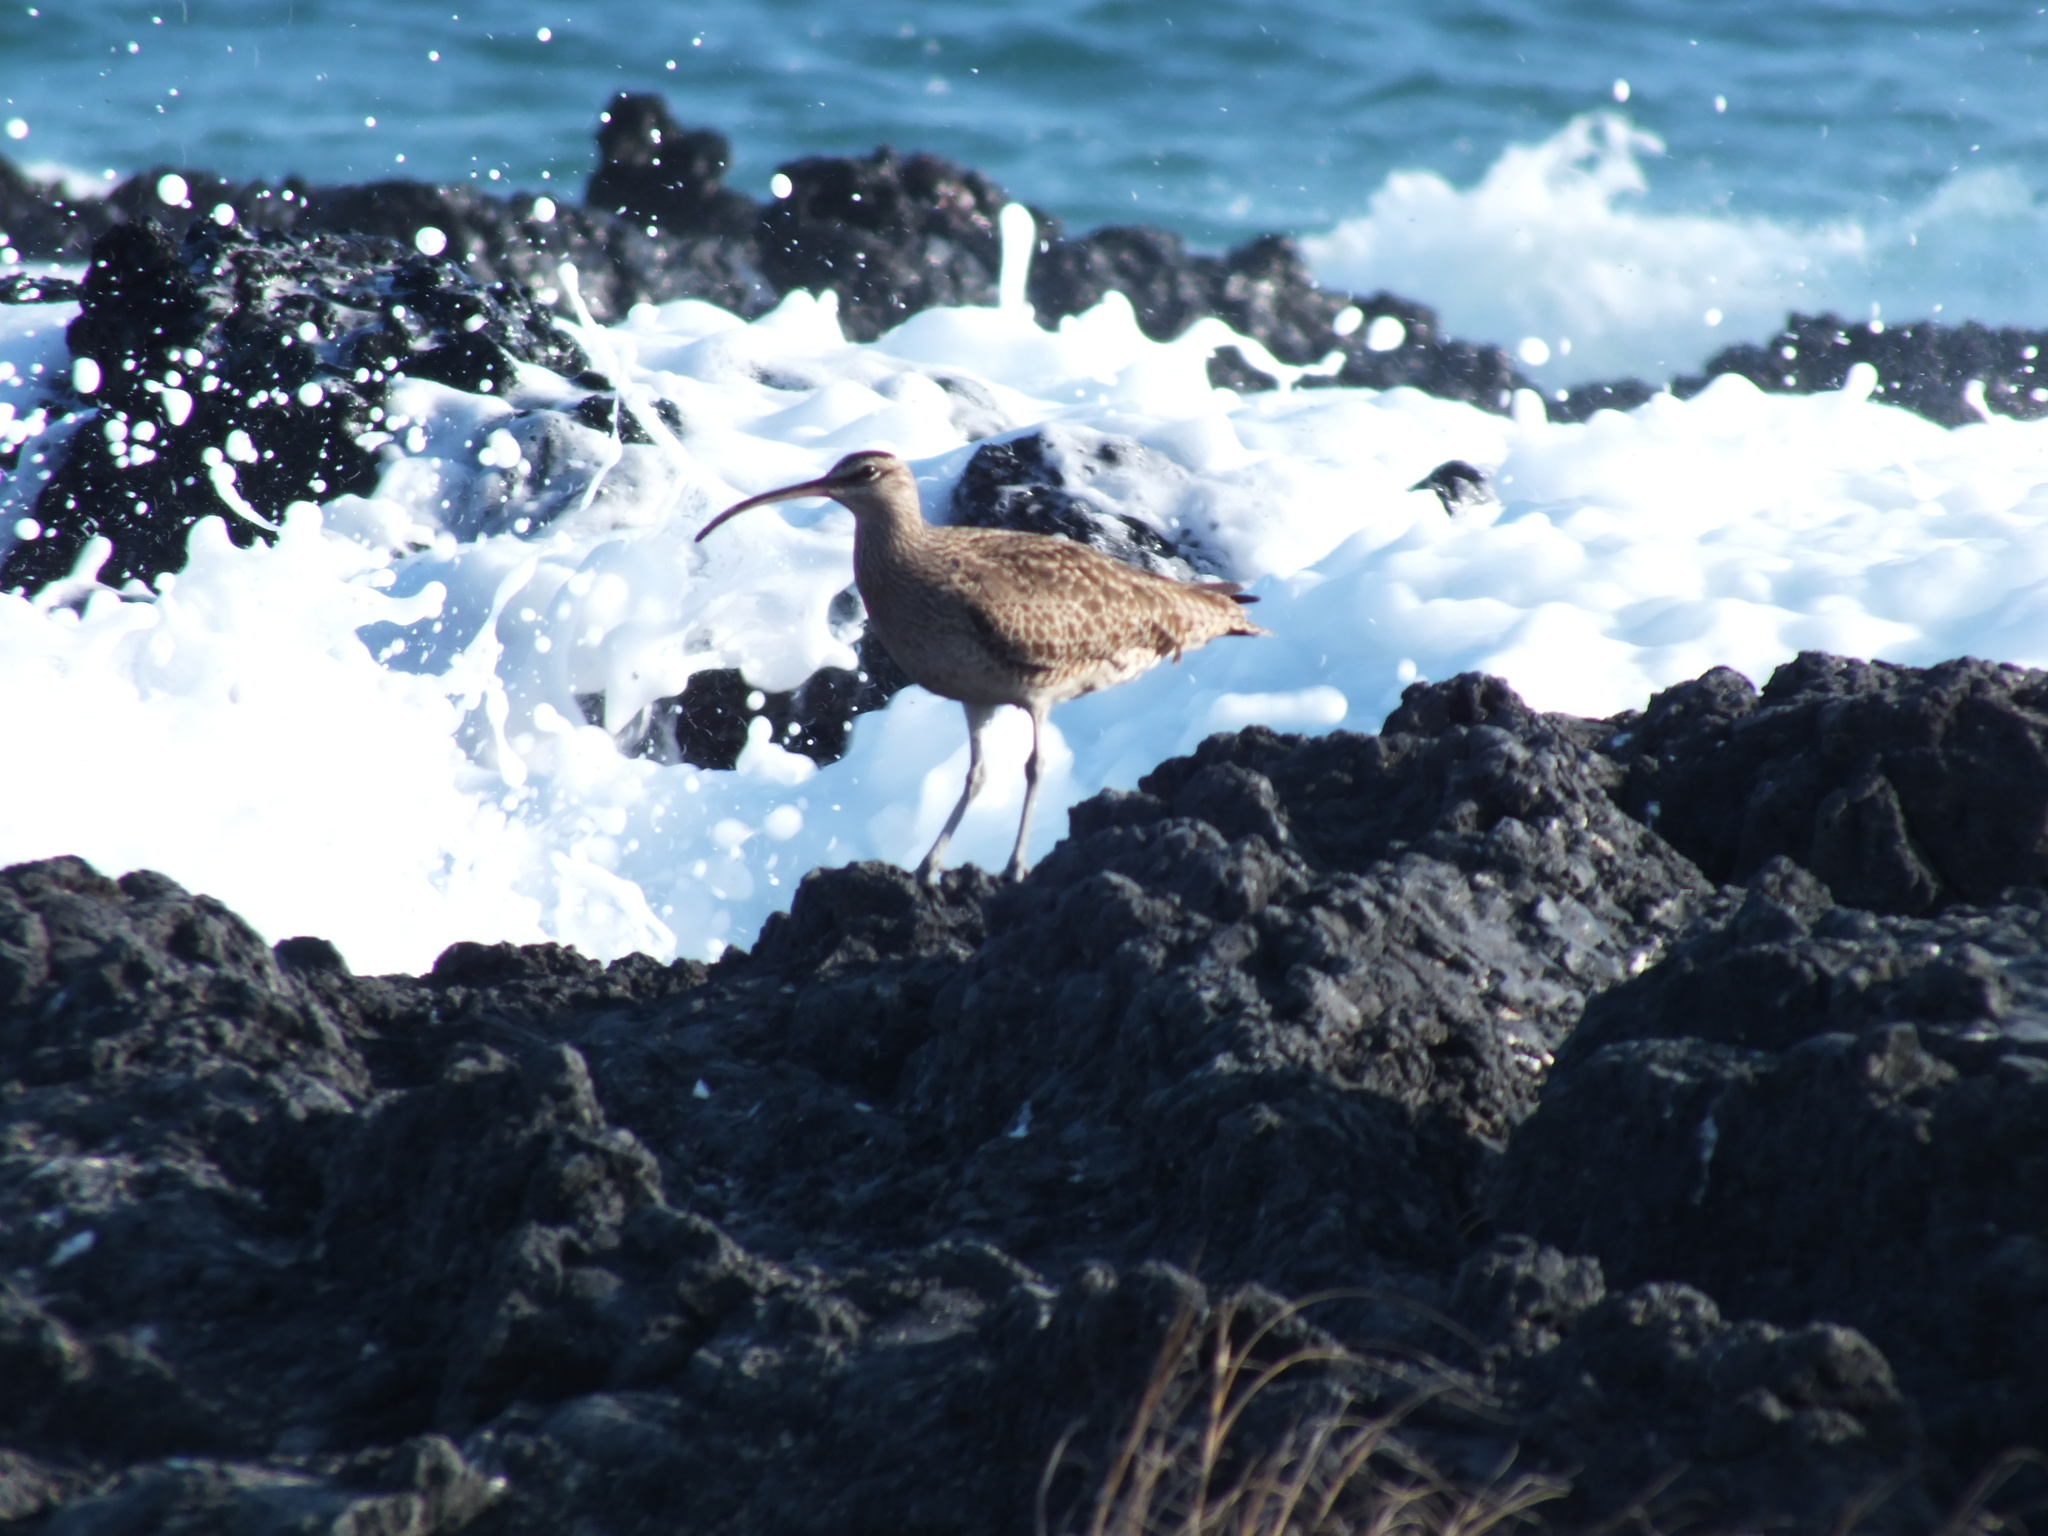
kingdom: Animalia
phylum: Chordata
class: Aves
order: Charadriiformes
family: Scolopacidae
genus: Numenius
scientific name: Numenius phaeopus
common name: Whimbrel
